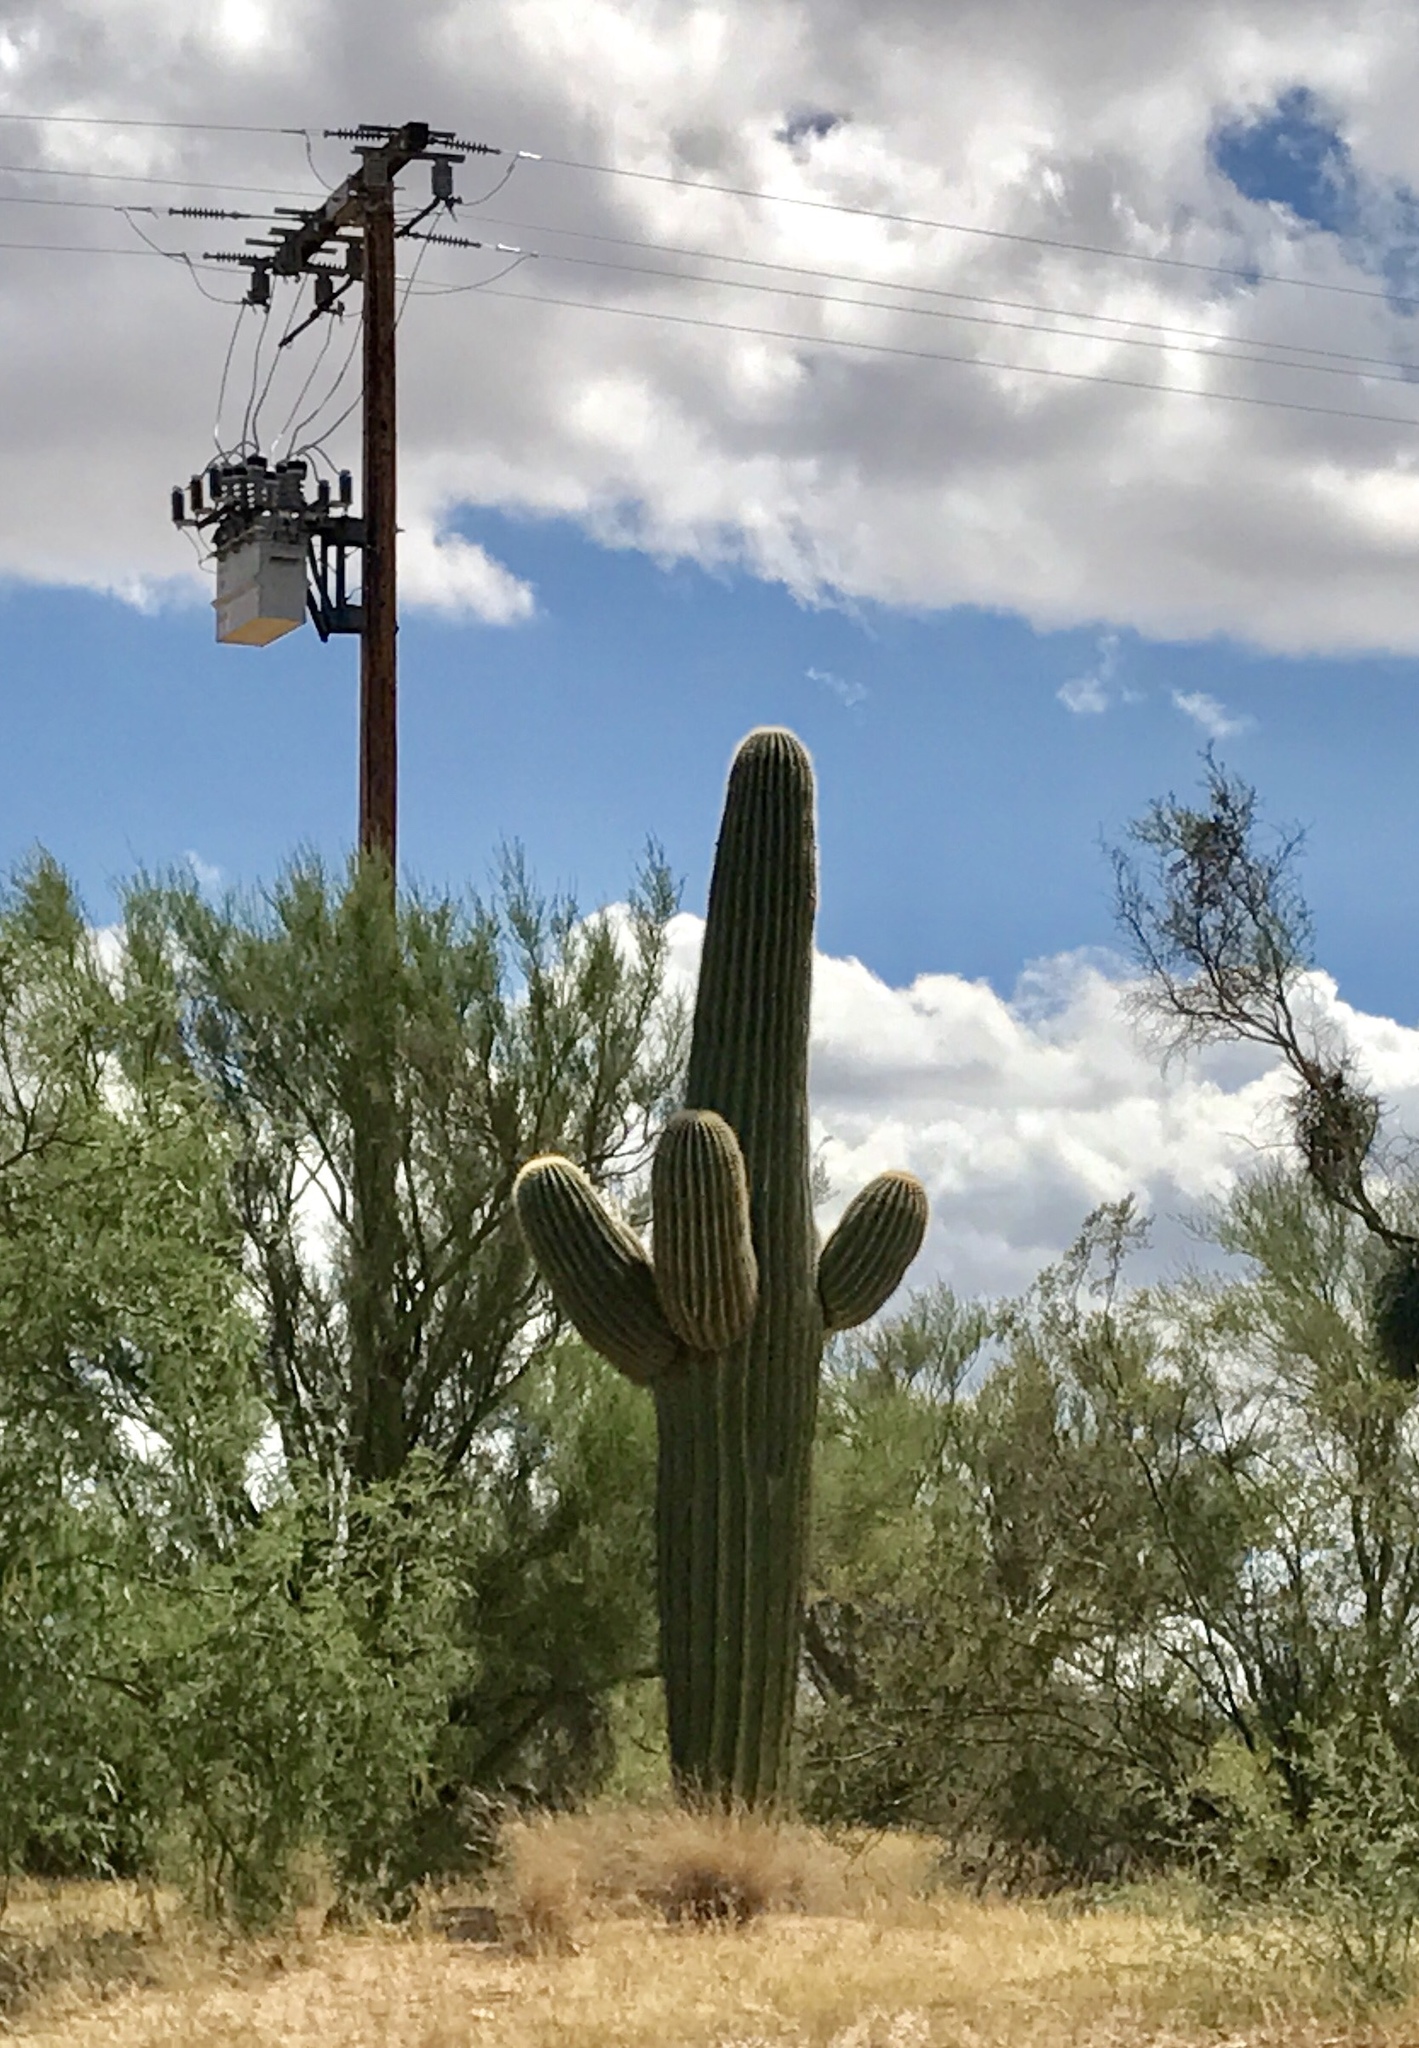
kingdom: Plantae
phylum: Tracheophyta
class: Magnoliopsida
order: Caryophyllales
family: Cactaceae
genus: Carnegiea
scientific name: Carnegiea gigantea
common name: Saguaro
